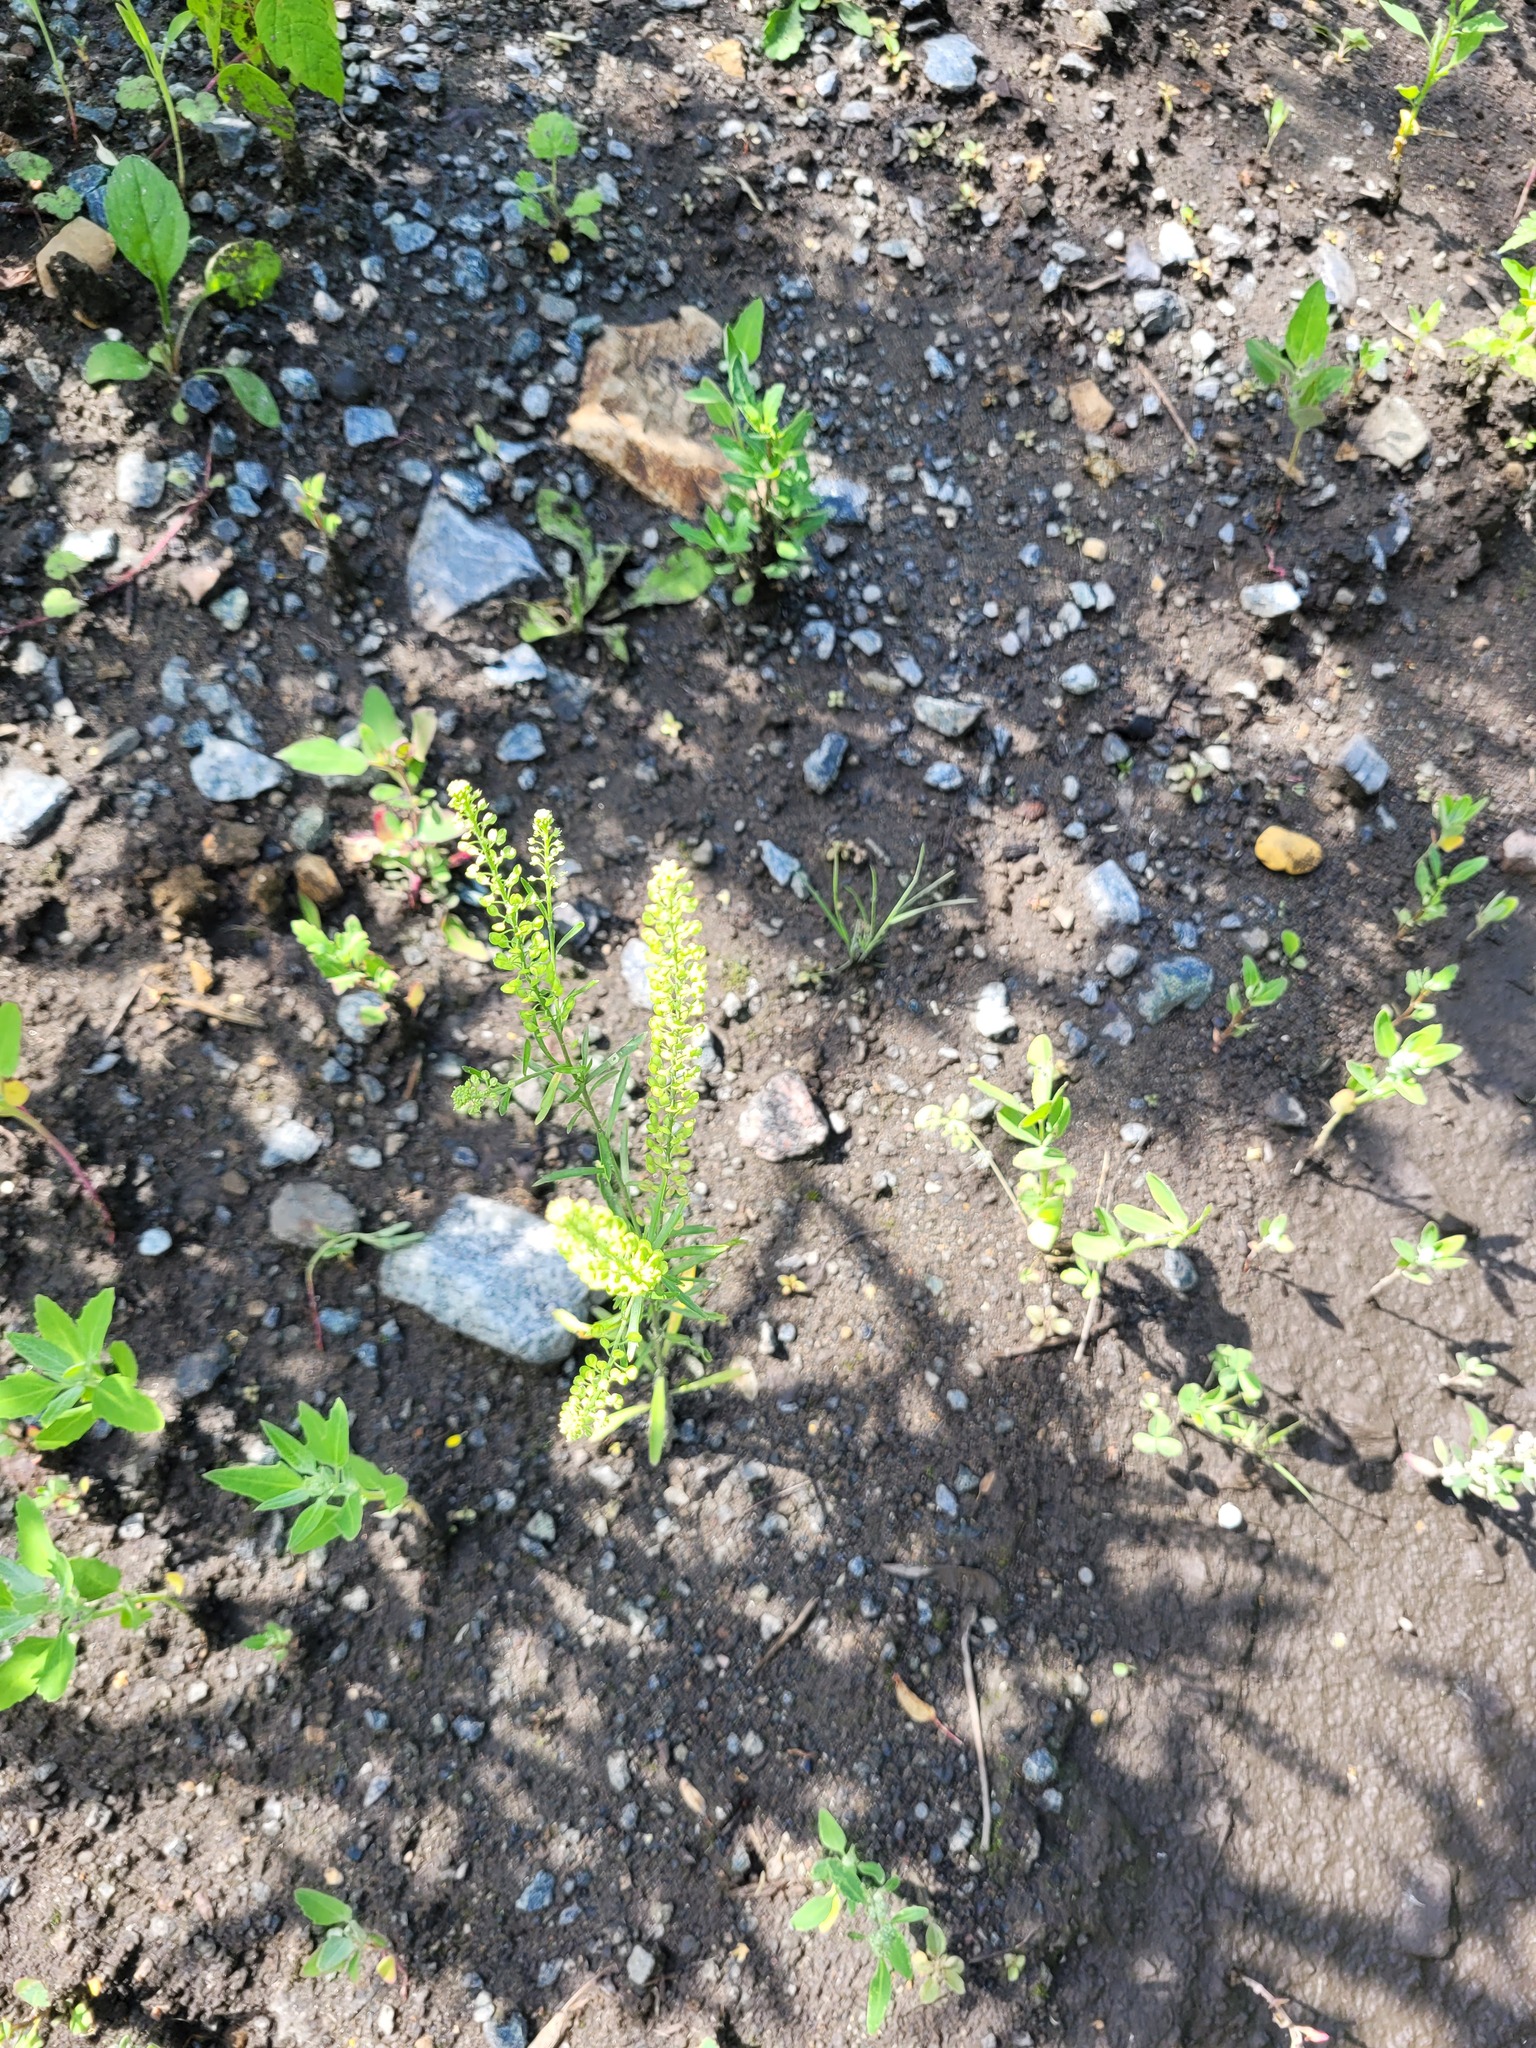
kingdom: Plantae
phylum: Tracheophyta
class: Magnoliopsida
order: Brassicales
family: Brassicaceae
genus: Lepidium
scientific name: Lepidium densiflorum
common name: Miner's pepperwort
